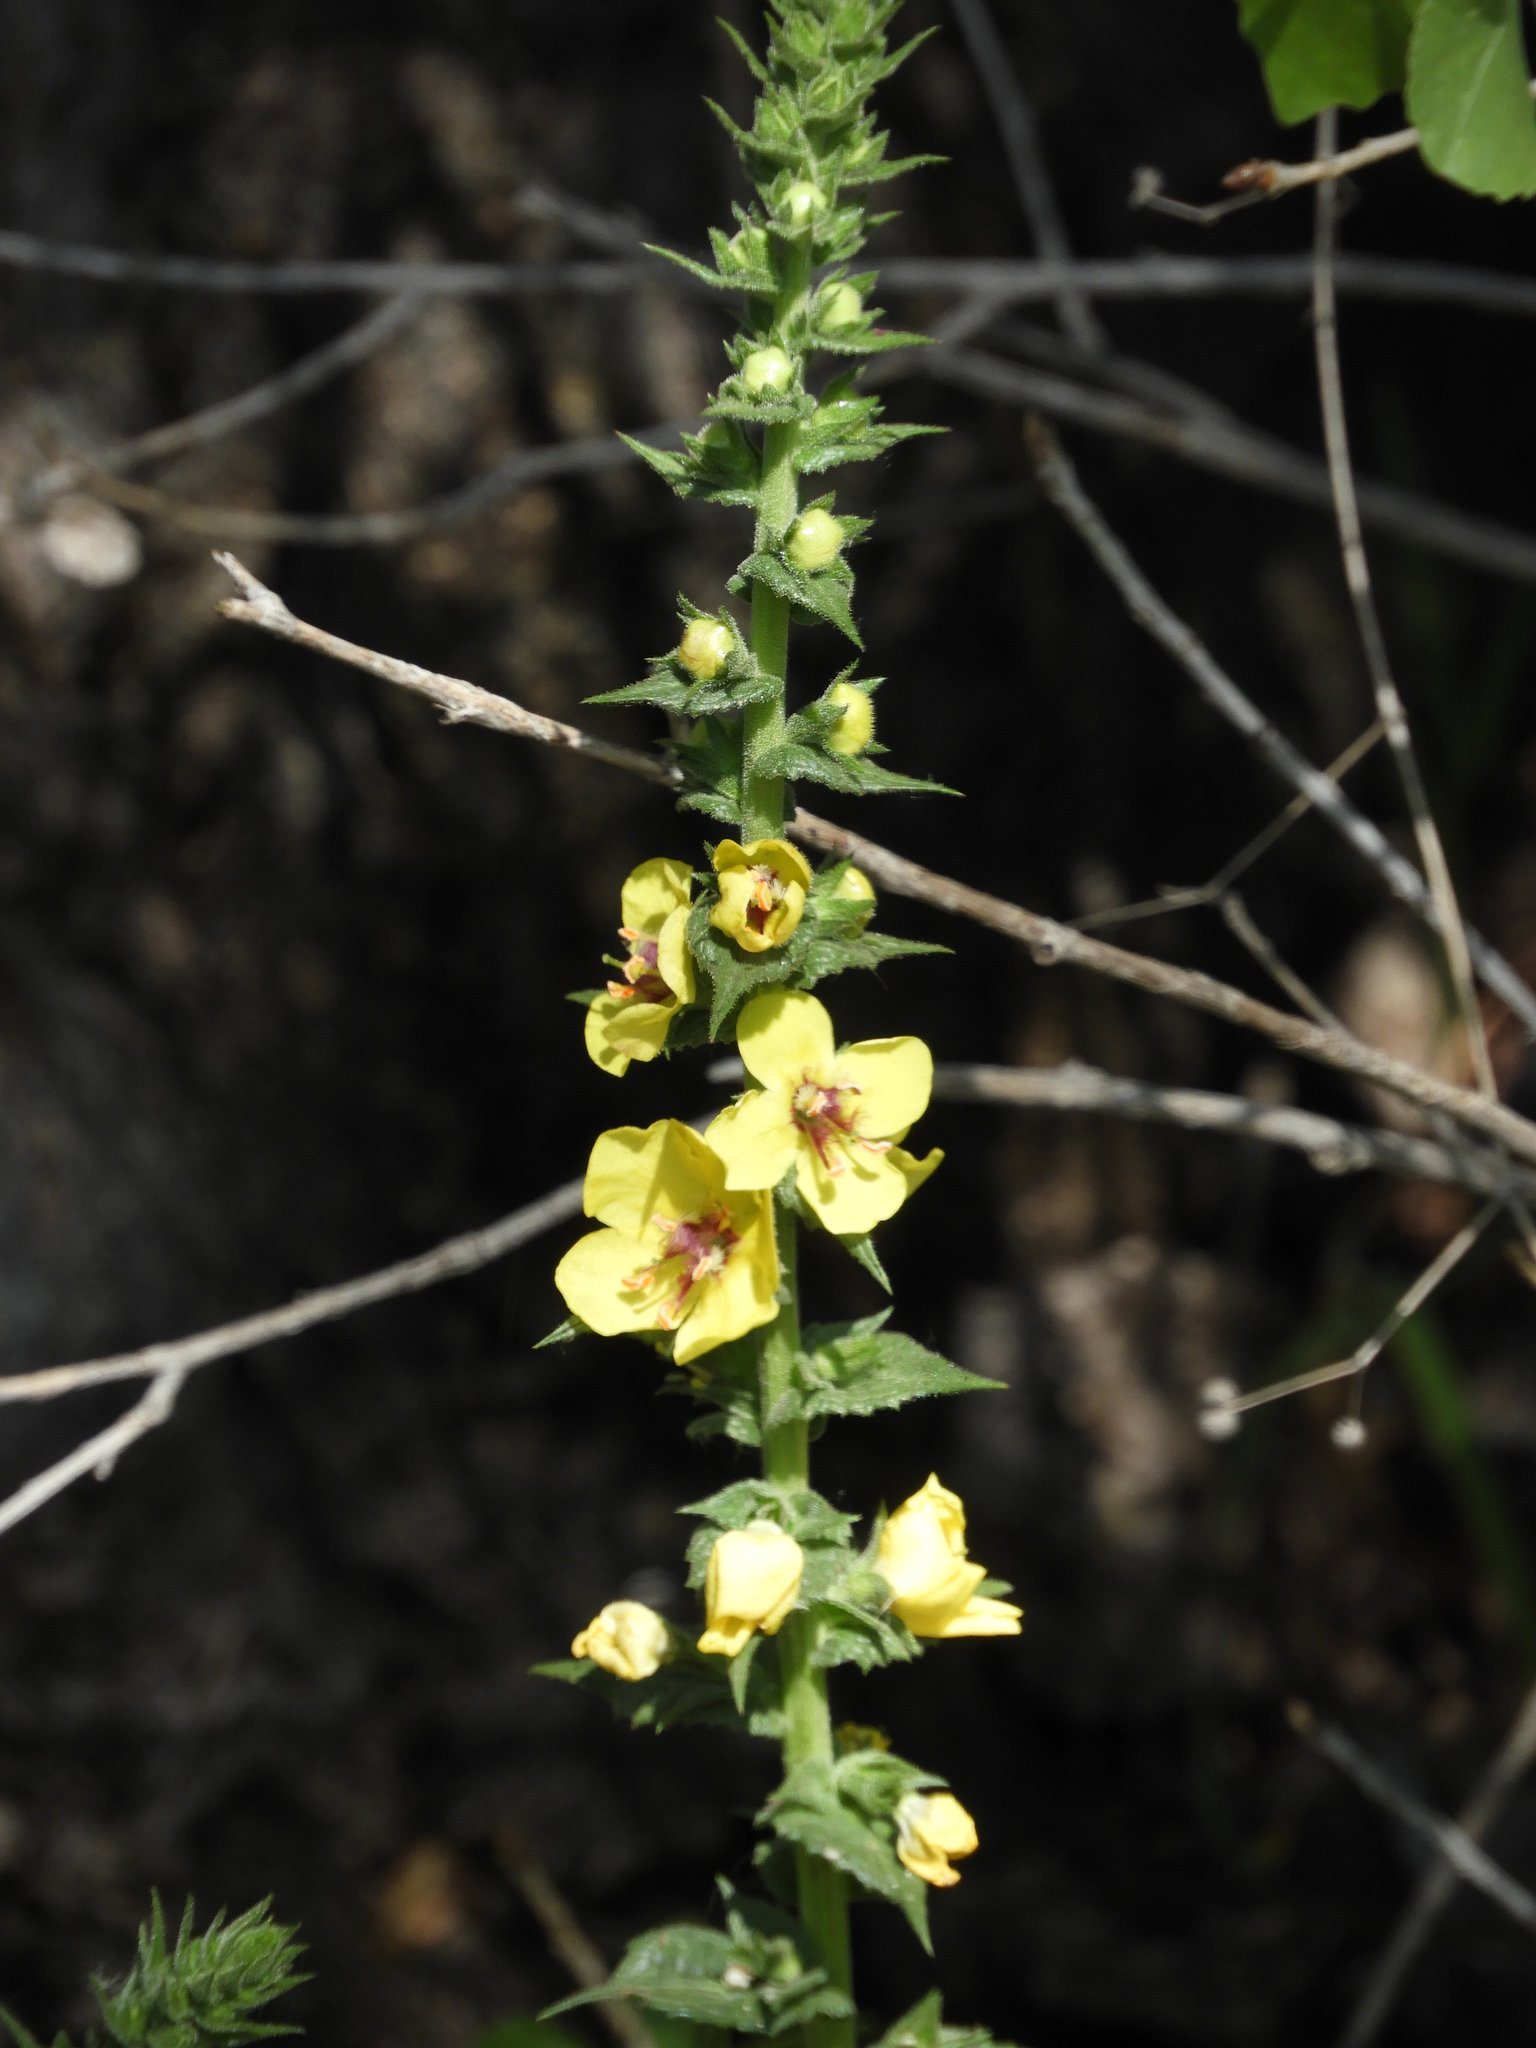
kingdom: Plantae
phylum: Tracheophyta
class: Magnoliopsida
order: Lamiales
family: Scrophulariaceae
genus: Verbascum
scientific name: Verbascum virgatum
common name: Twiggy mullein
